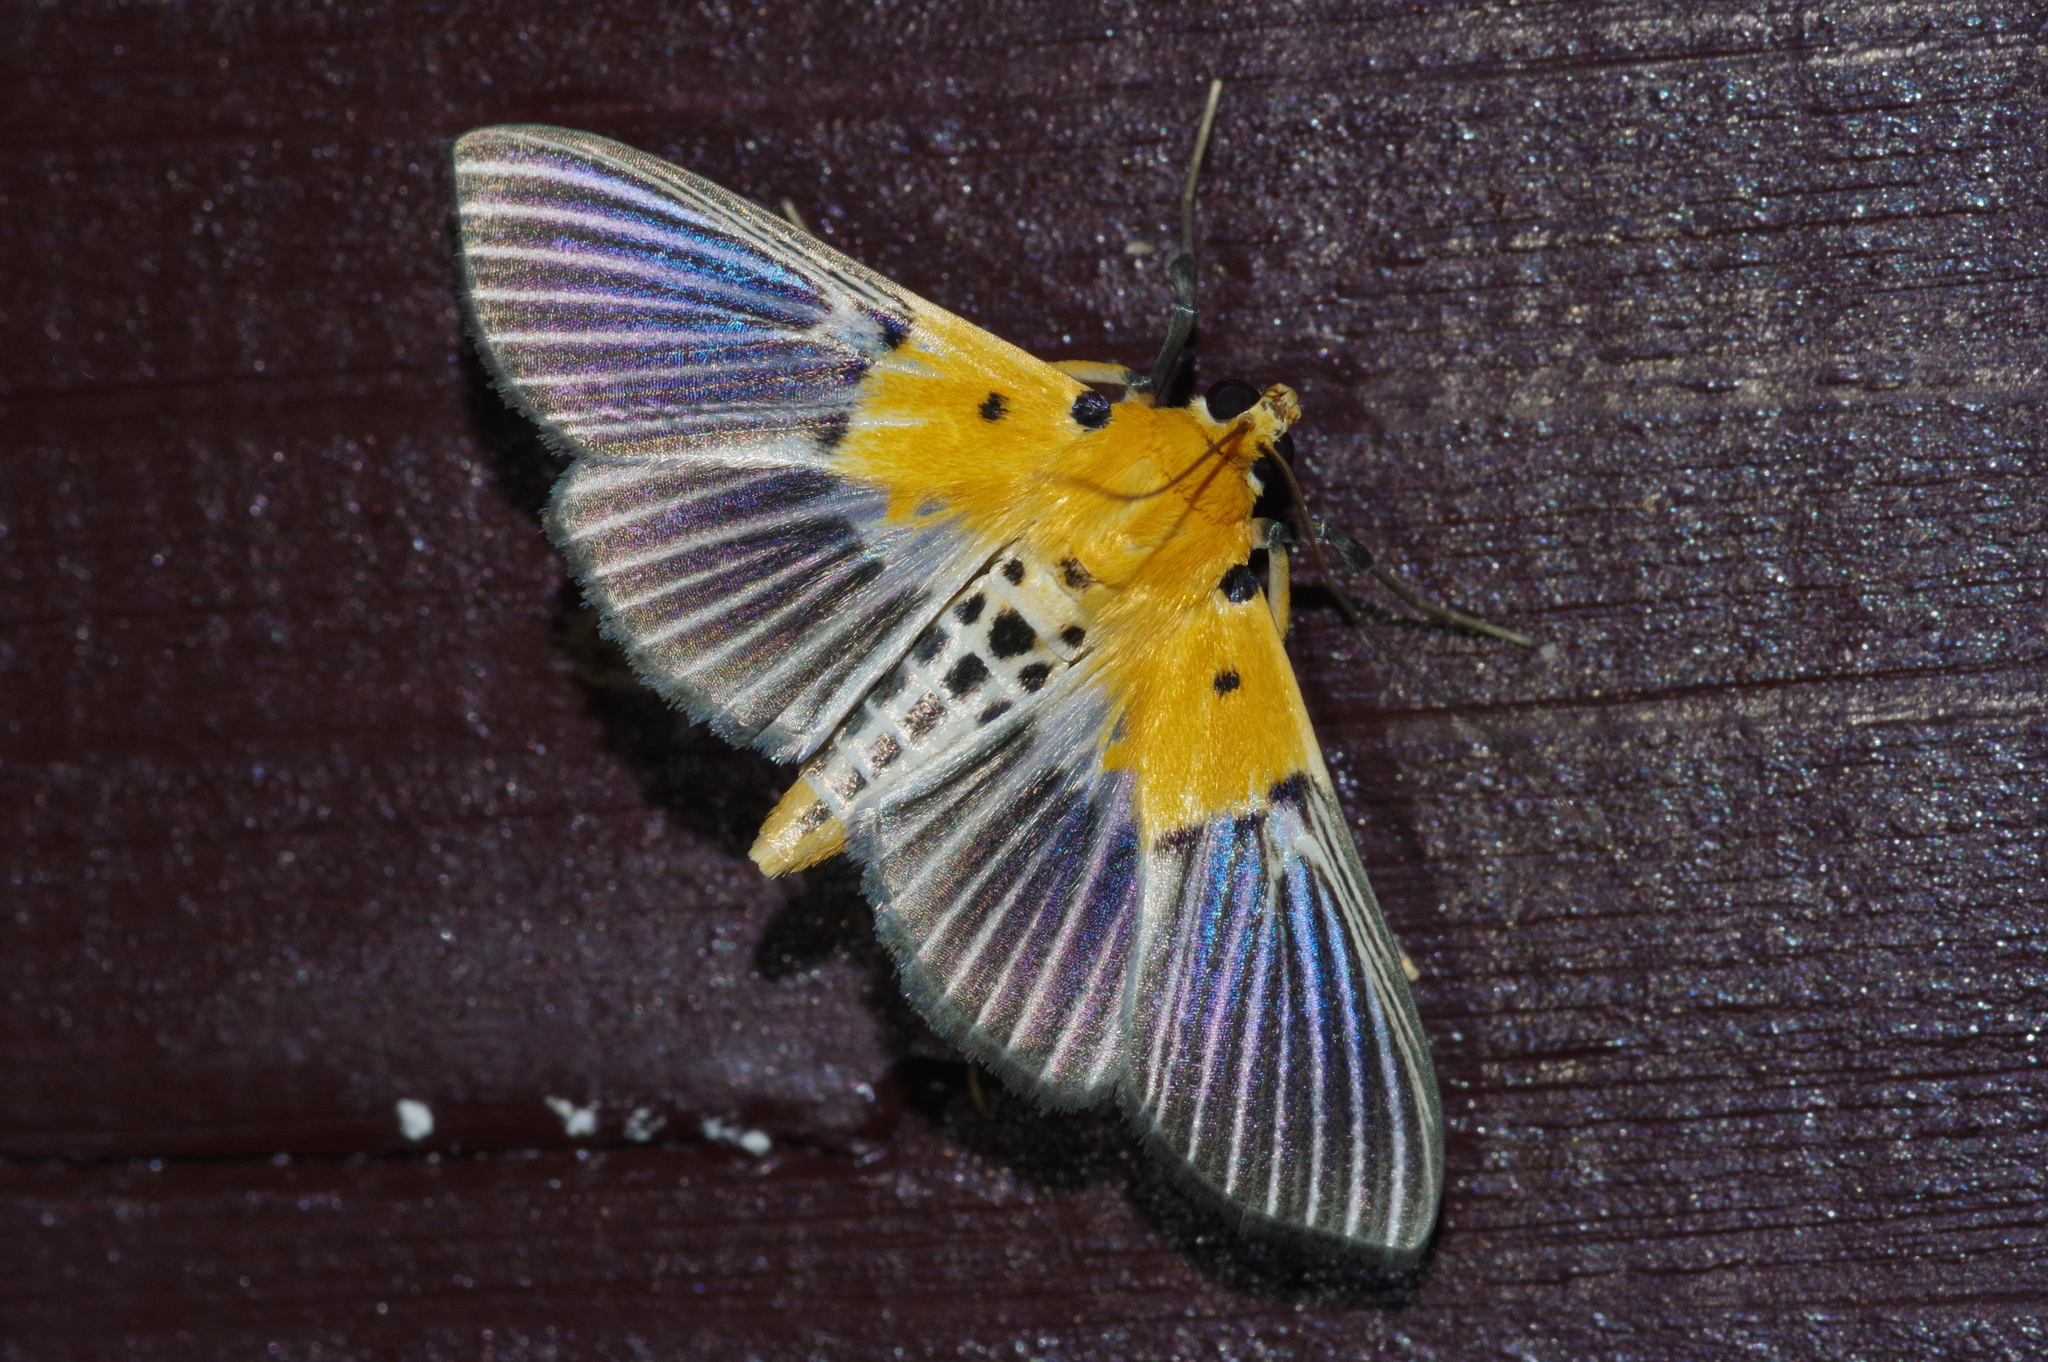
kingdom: Animalia
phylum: Arthropoda
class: Insecta
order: Lepidoptera
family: Crambidae
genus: Nevrina
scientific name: Nevrina procopia
